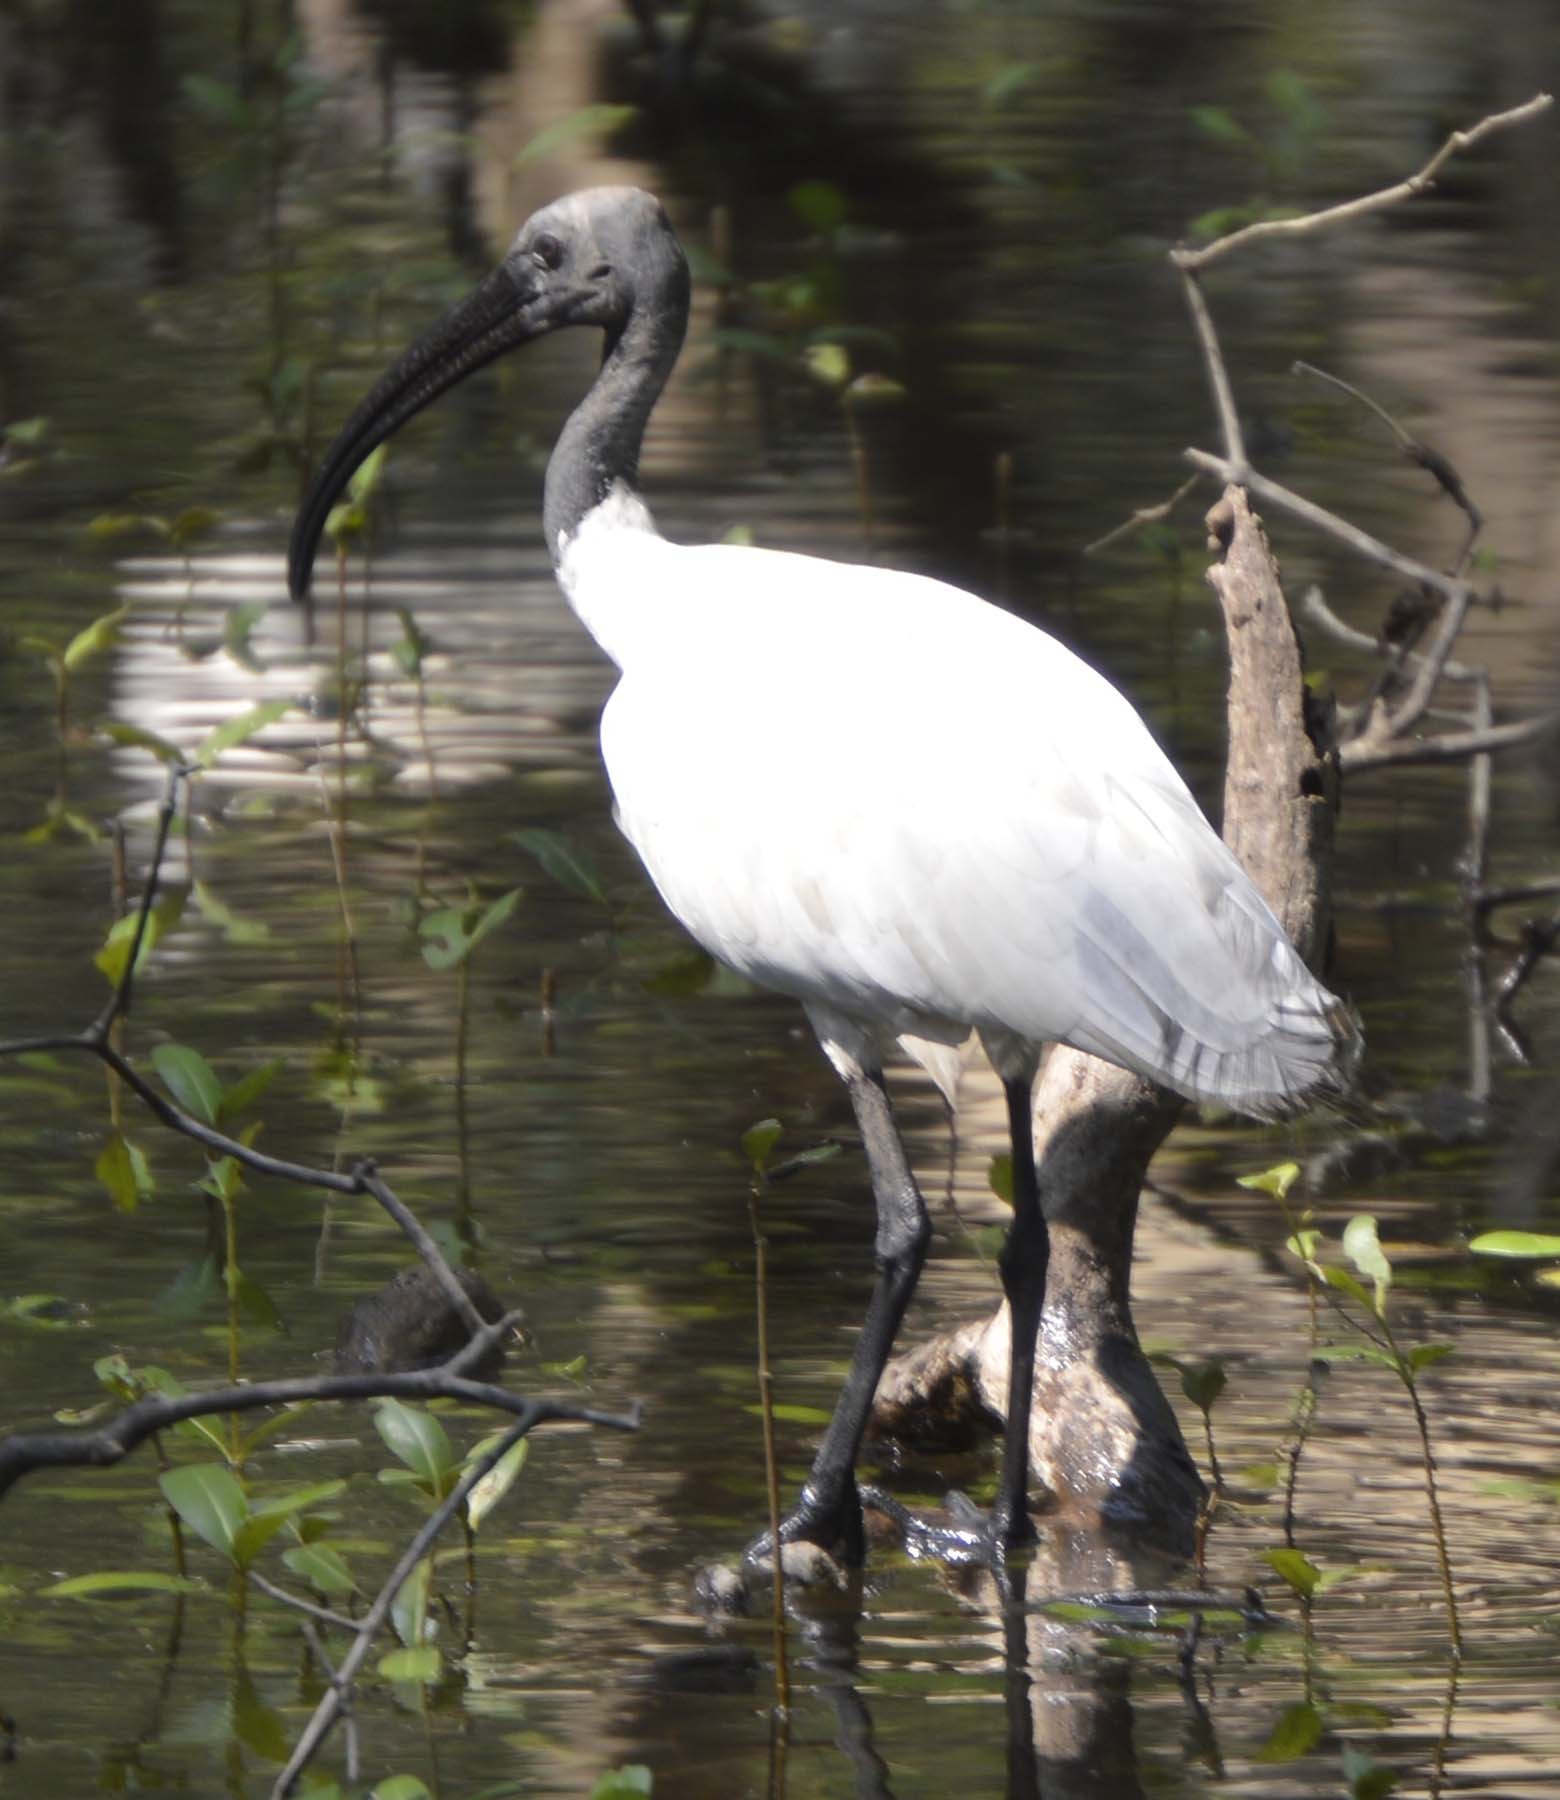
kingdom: Animalia
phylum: Chordata
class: Aves
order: Pelecaniformes
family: Threskiornithidae
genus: Threskiornis
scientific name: Threskiornis melanocephalus
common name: Black-headed ibis
